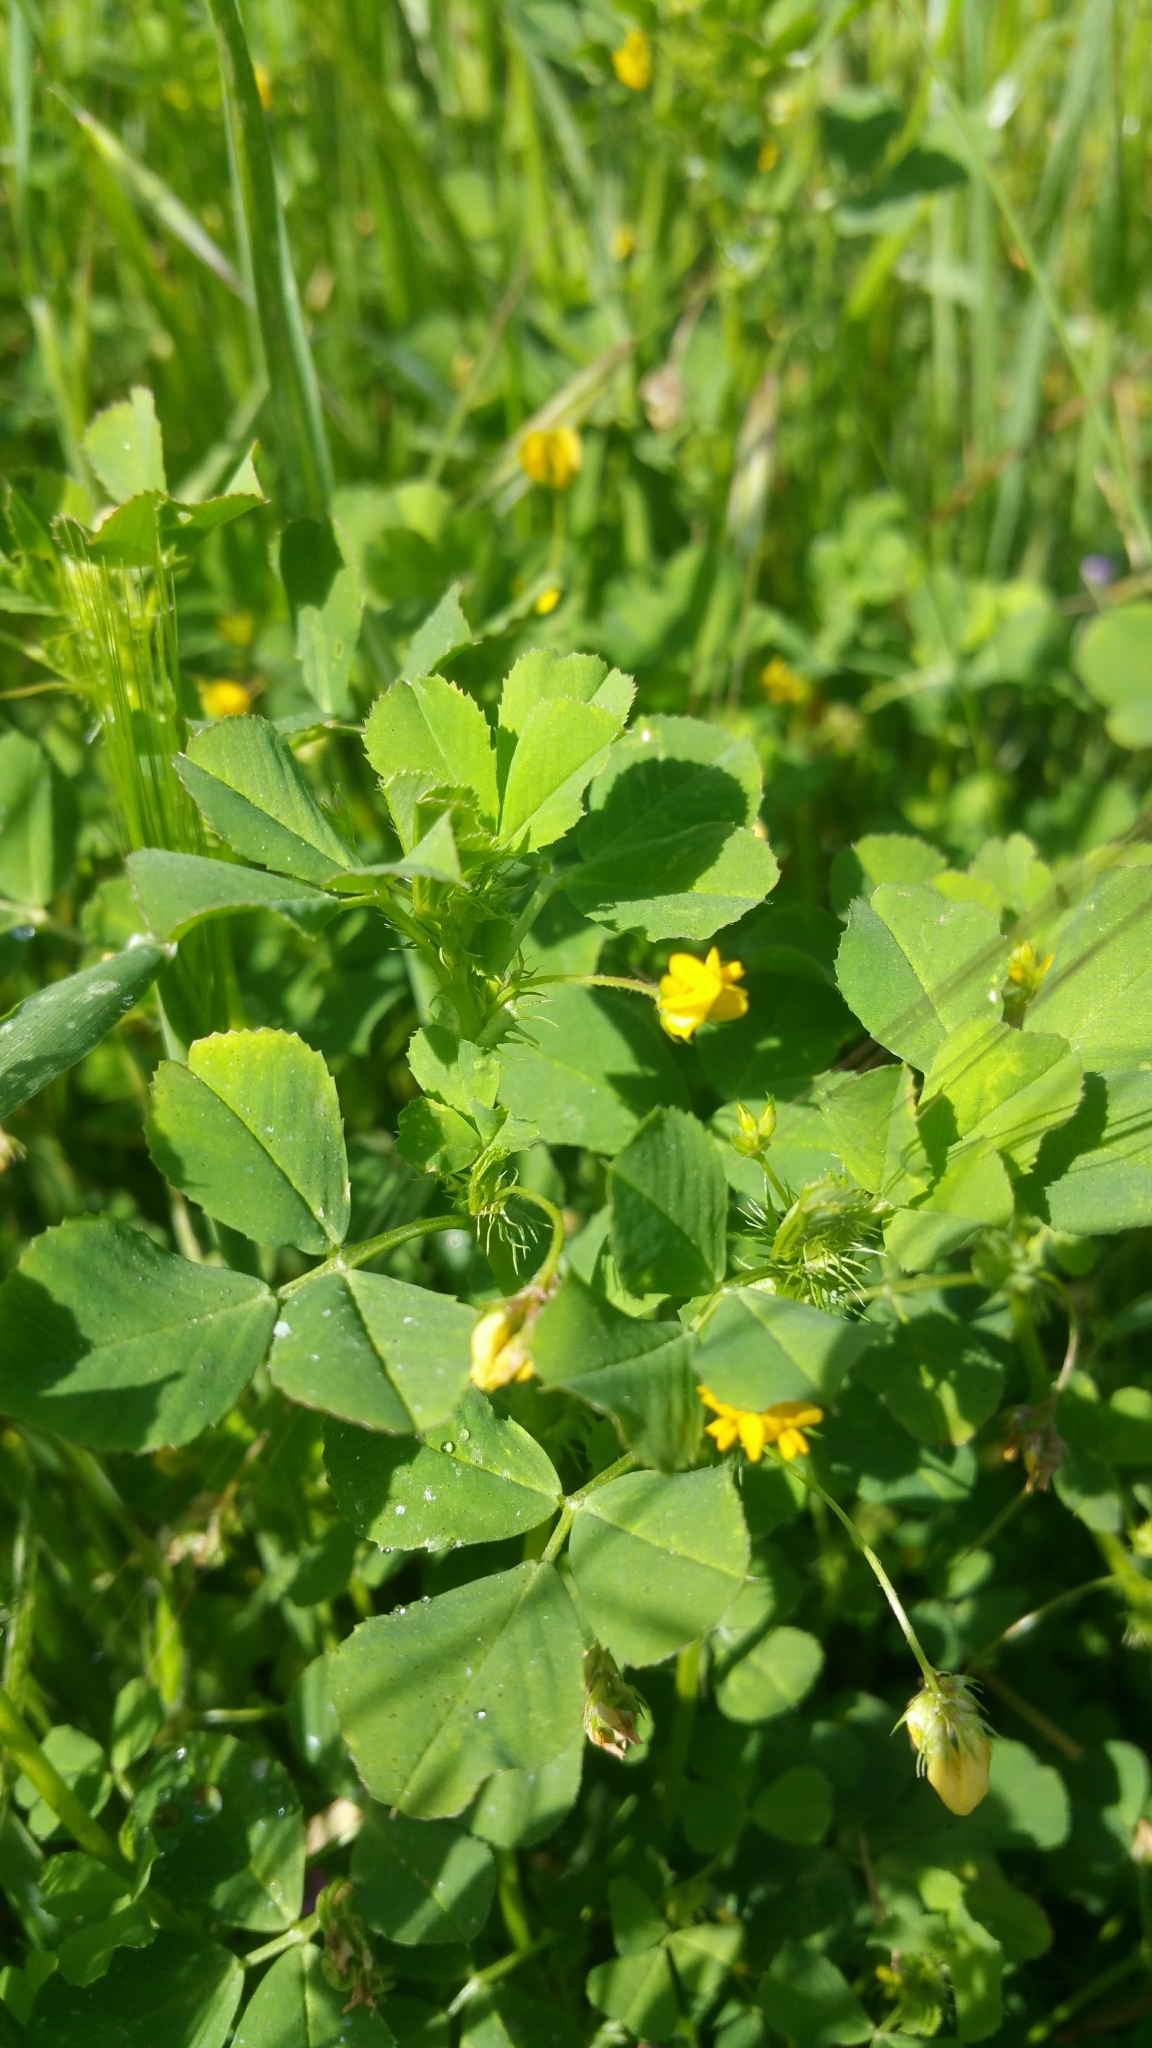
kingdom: Plantae
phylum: Tracheophyta
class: Magnoliopsida
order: Fabales
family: Fabaceae
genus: Medicago
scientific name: Medicago polymorpha
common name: Burclover
